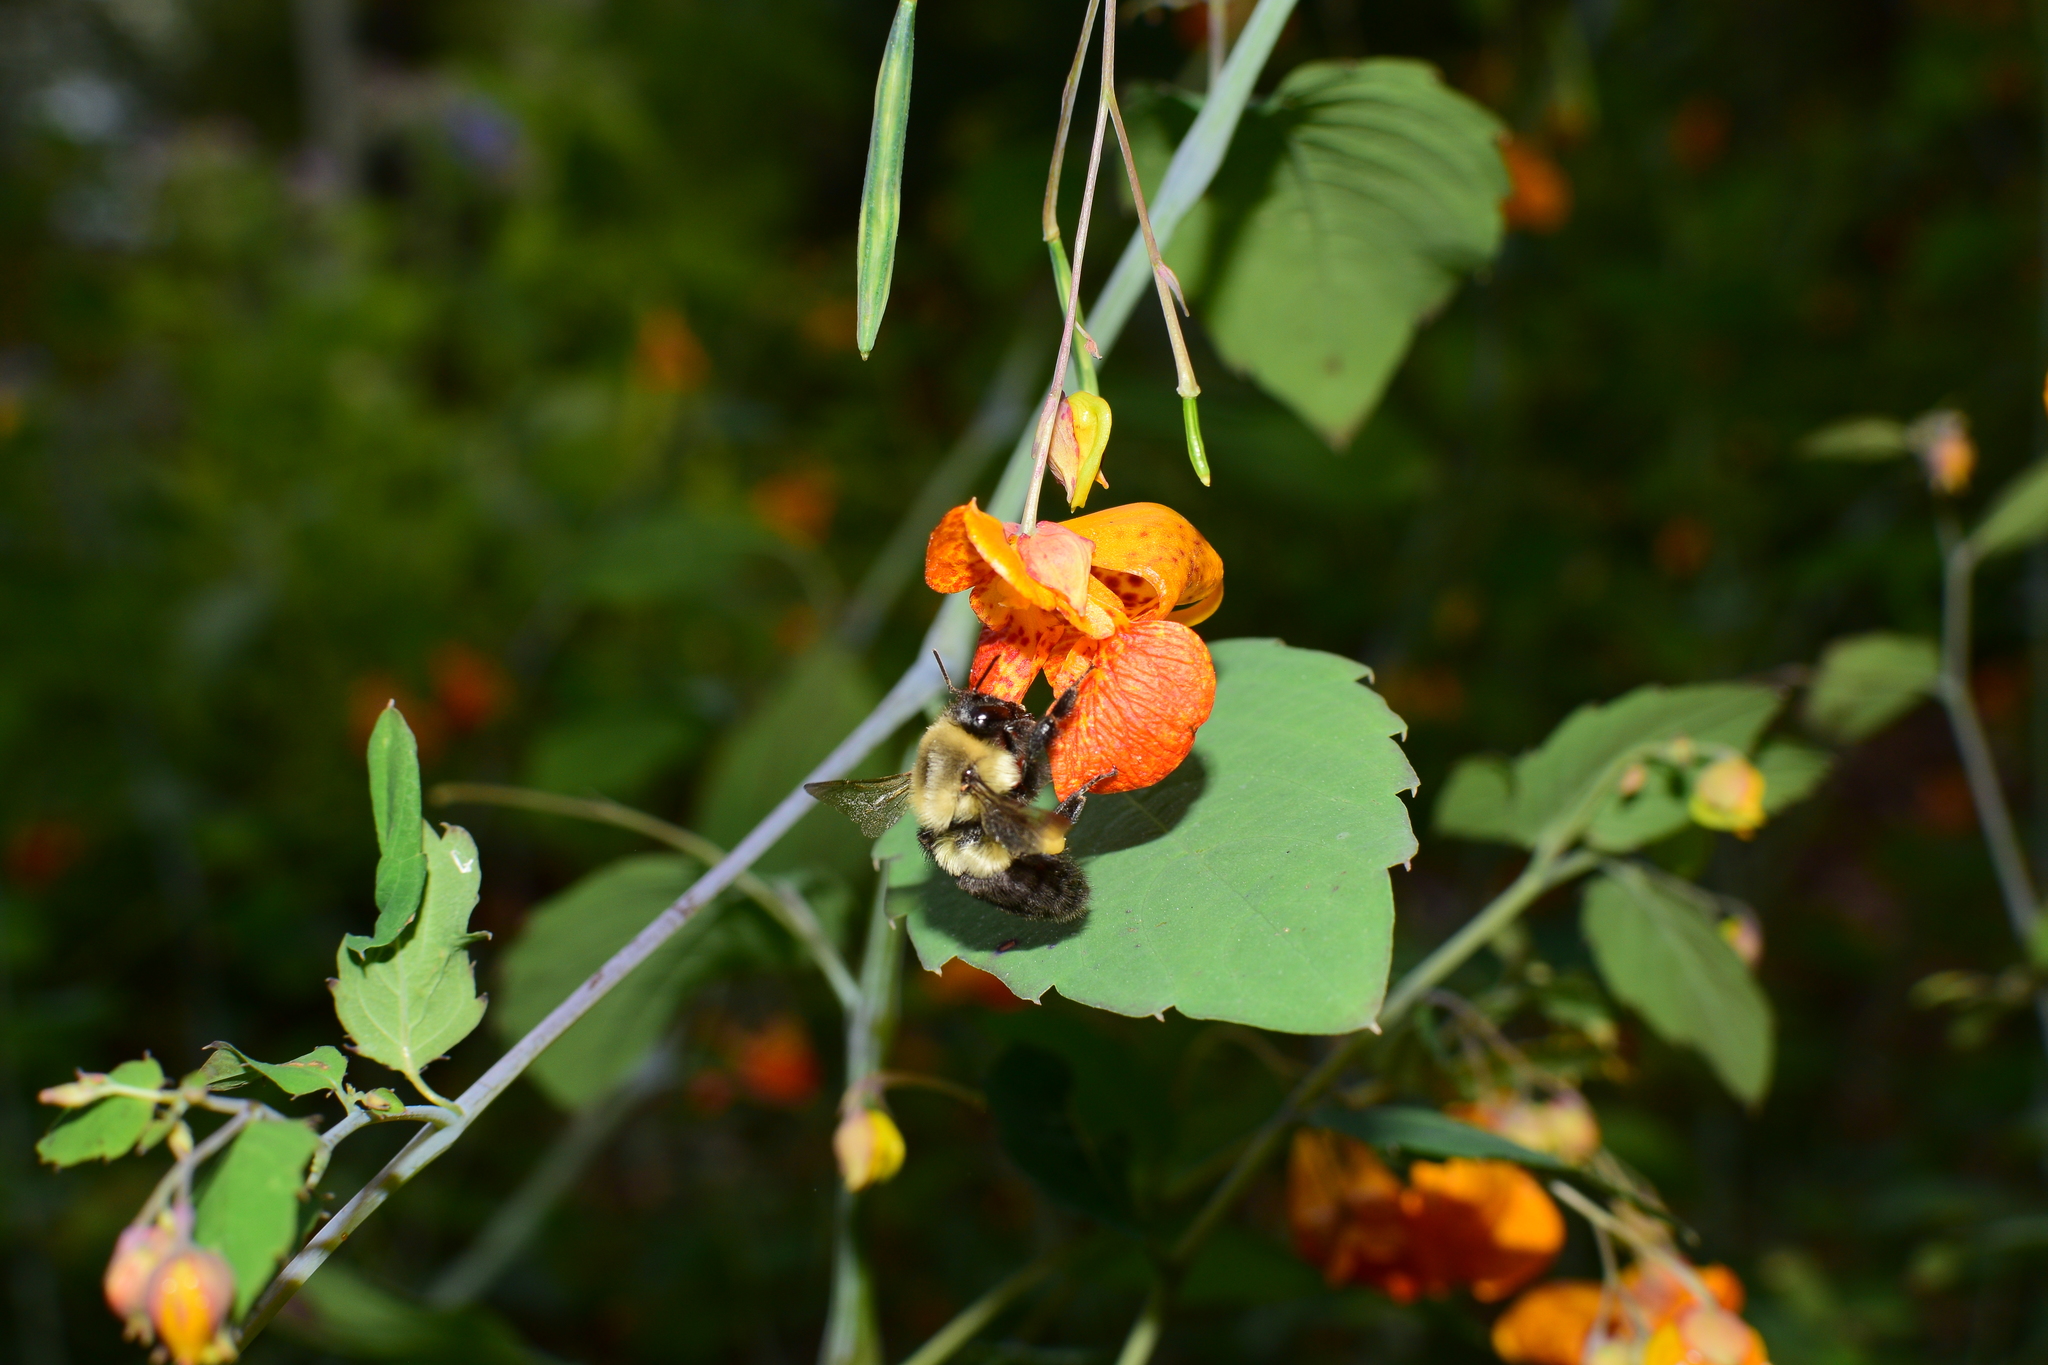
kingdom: Animalia
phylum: Arthropoda
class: Insecta
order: Hymenoptera
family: Apidae
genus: Bombus
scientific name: Bombus impatiens
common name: Common eastern bumble bee
